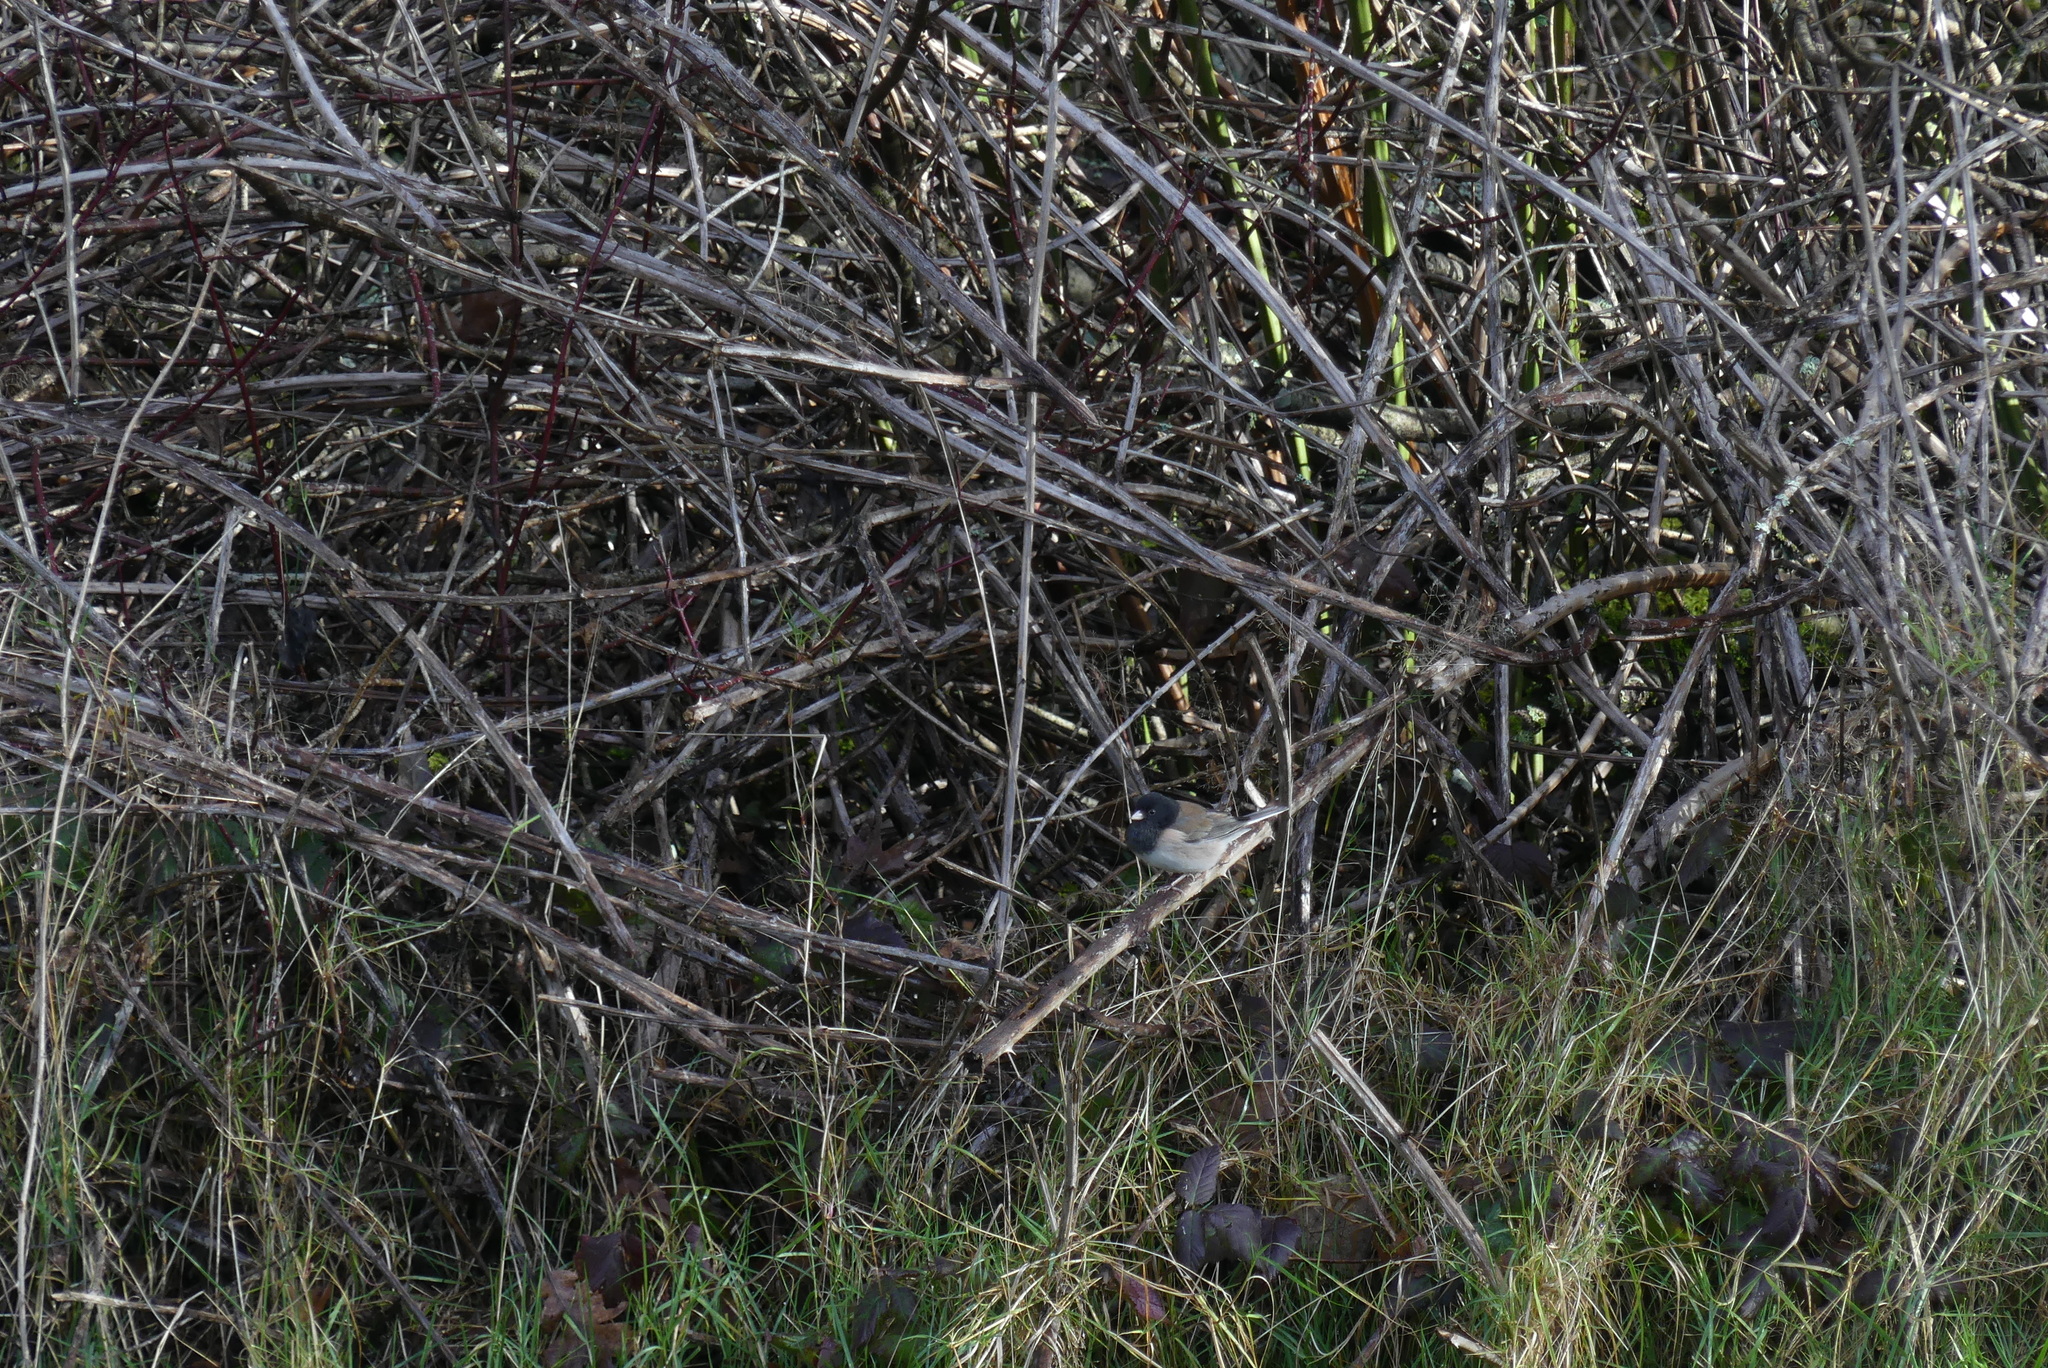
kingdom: Animalia
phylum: Chordata
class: Aves
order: Passeriformes
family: Passerellidae
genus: Junco
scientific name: Junco hyemalis
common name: Dark-eyed junco
